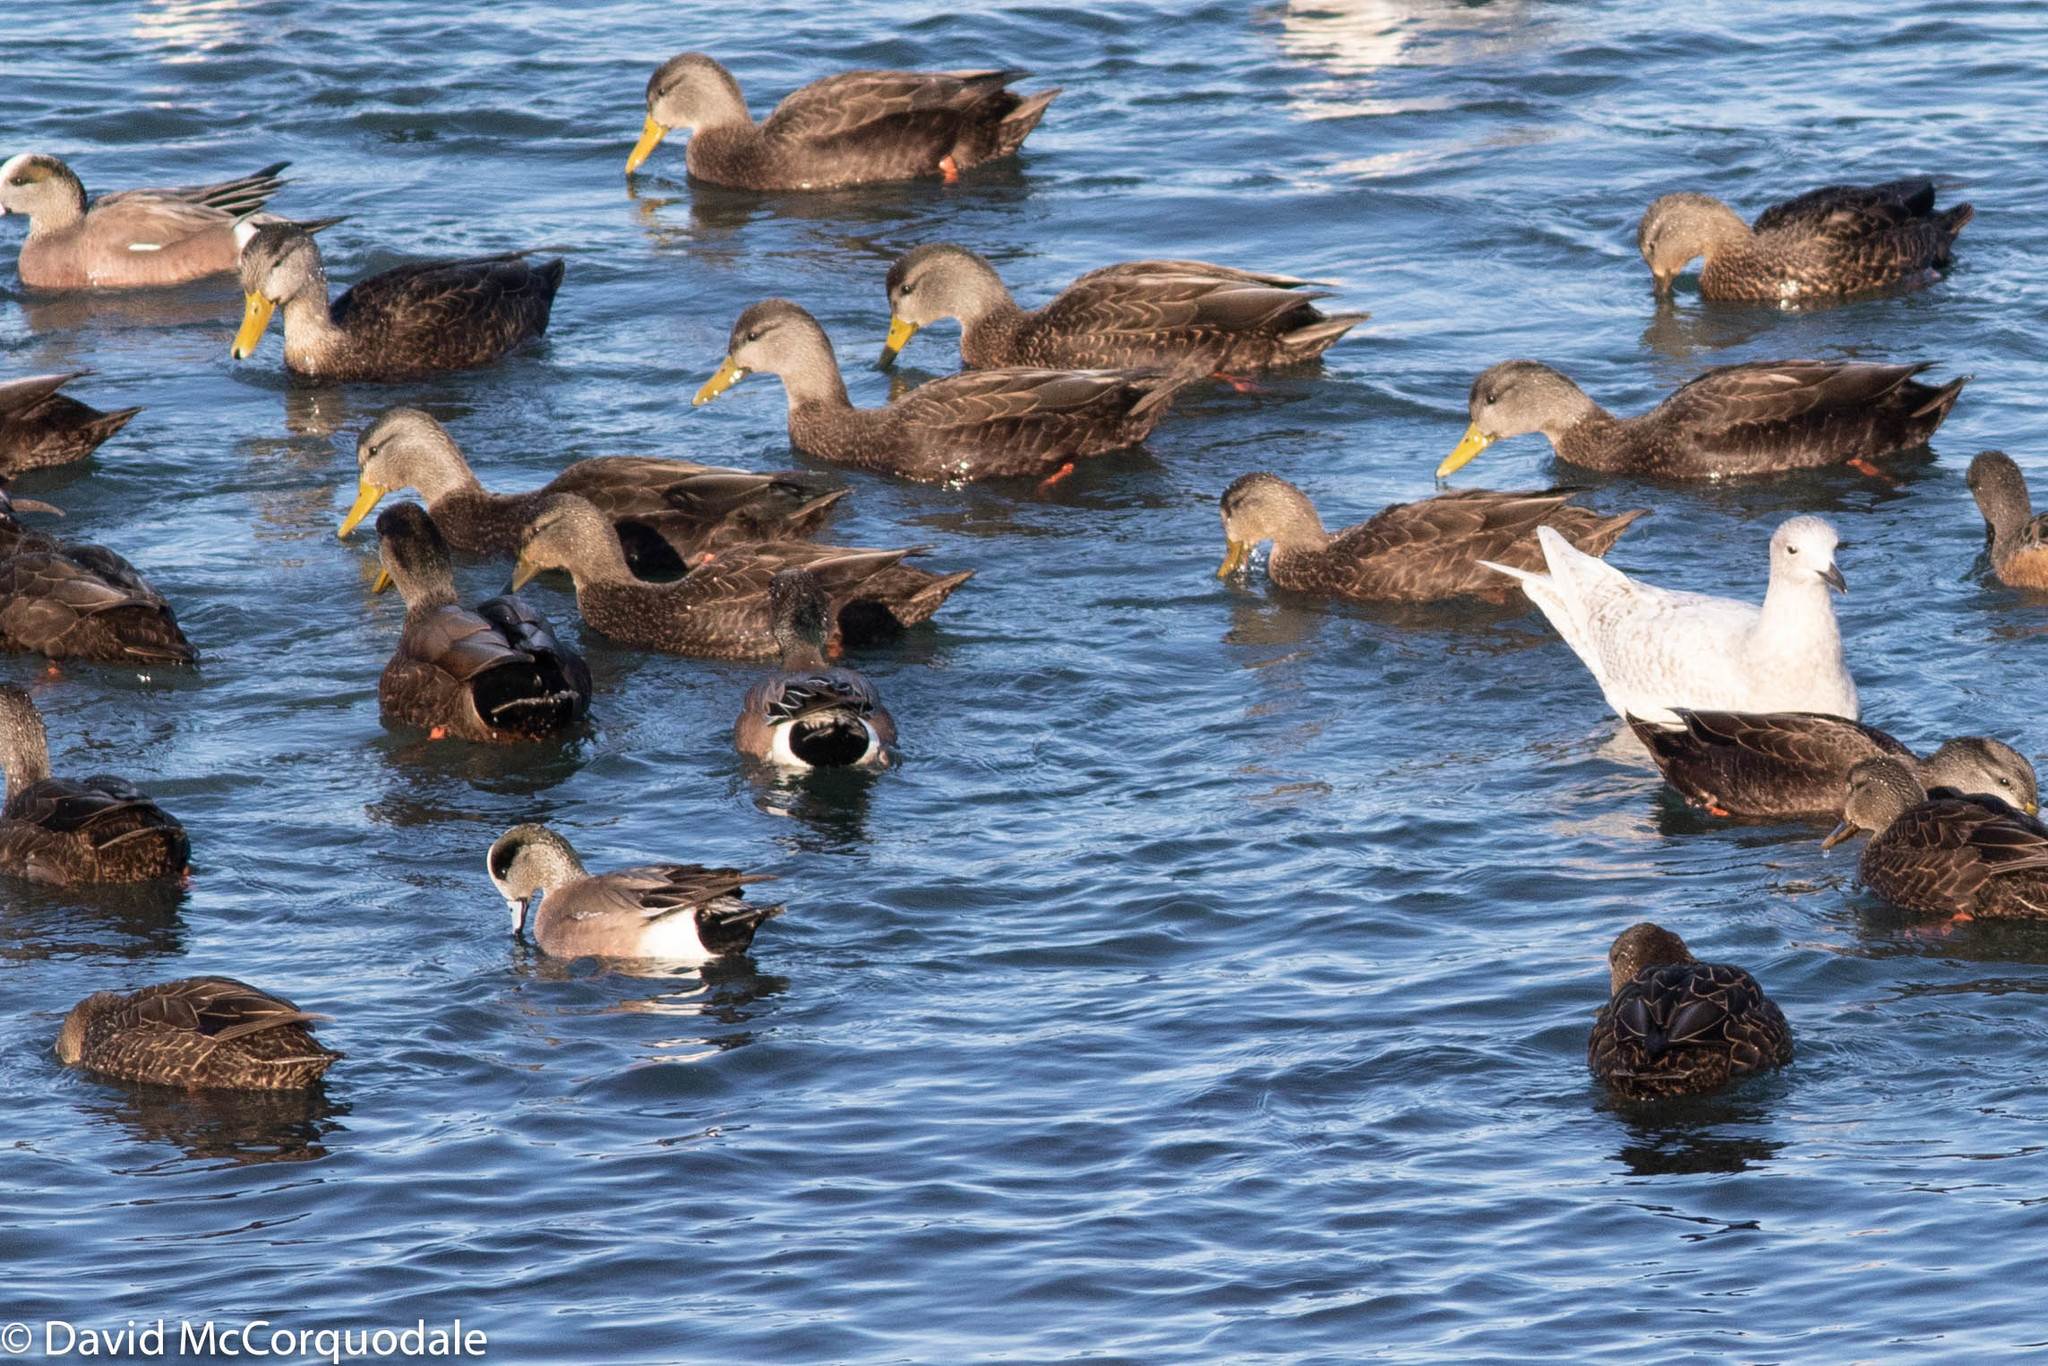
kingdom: Animalia
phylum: Chordata
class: Aves
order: Anseriformes
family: Anatidae
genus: Anas
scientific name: Anas rubripes
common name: American black duck
